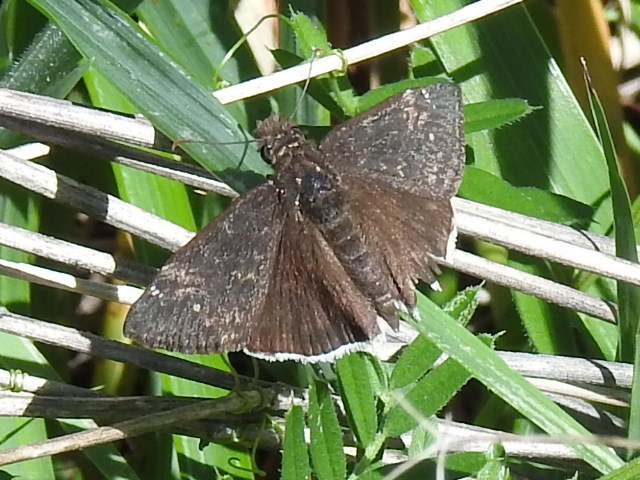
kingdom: Animalia
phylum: Arthropoda
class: Insecta
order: Lepidoptera
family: Hesperiidae
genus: Erynnis
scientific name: Erynnis funeralis
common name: Funereal duskywing
